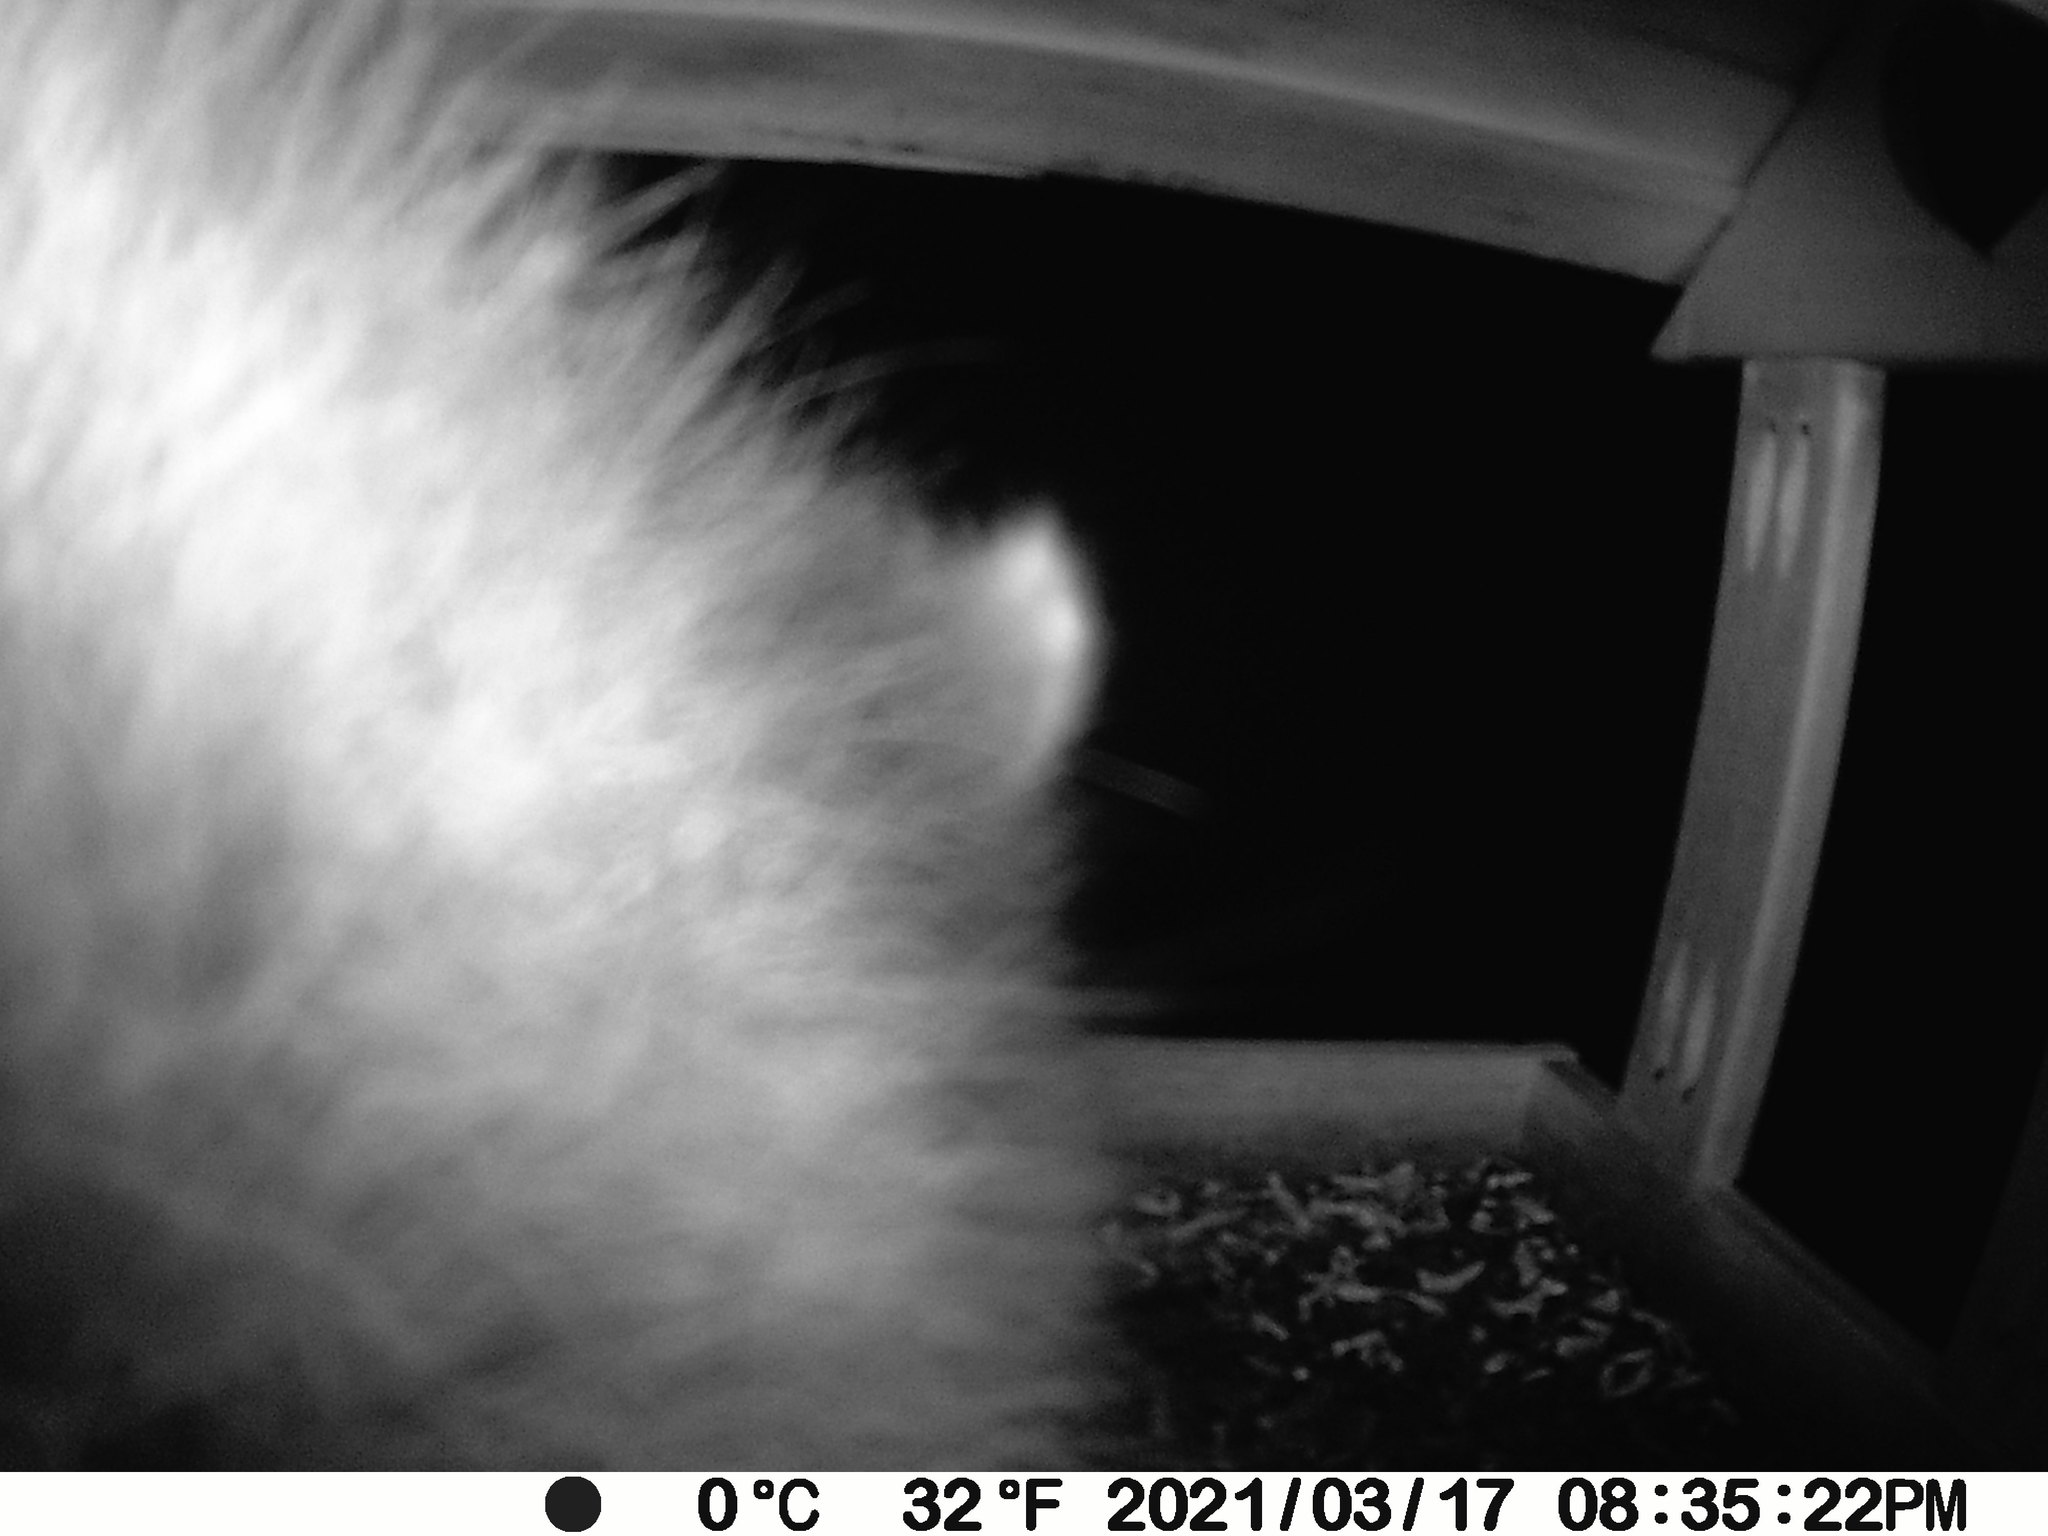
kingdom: Animalia
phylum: Chordata
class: Mammalia
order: Carnivora
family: Procyonidae
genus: Procyon
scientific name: Procyon lotor
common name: Raccoon
